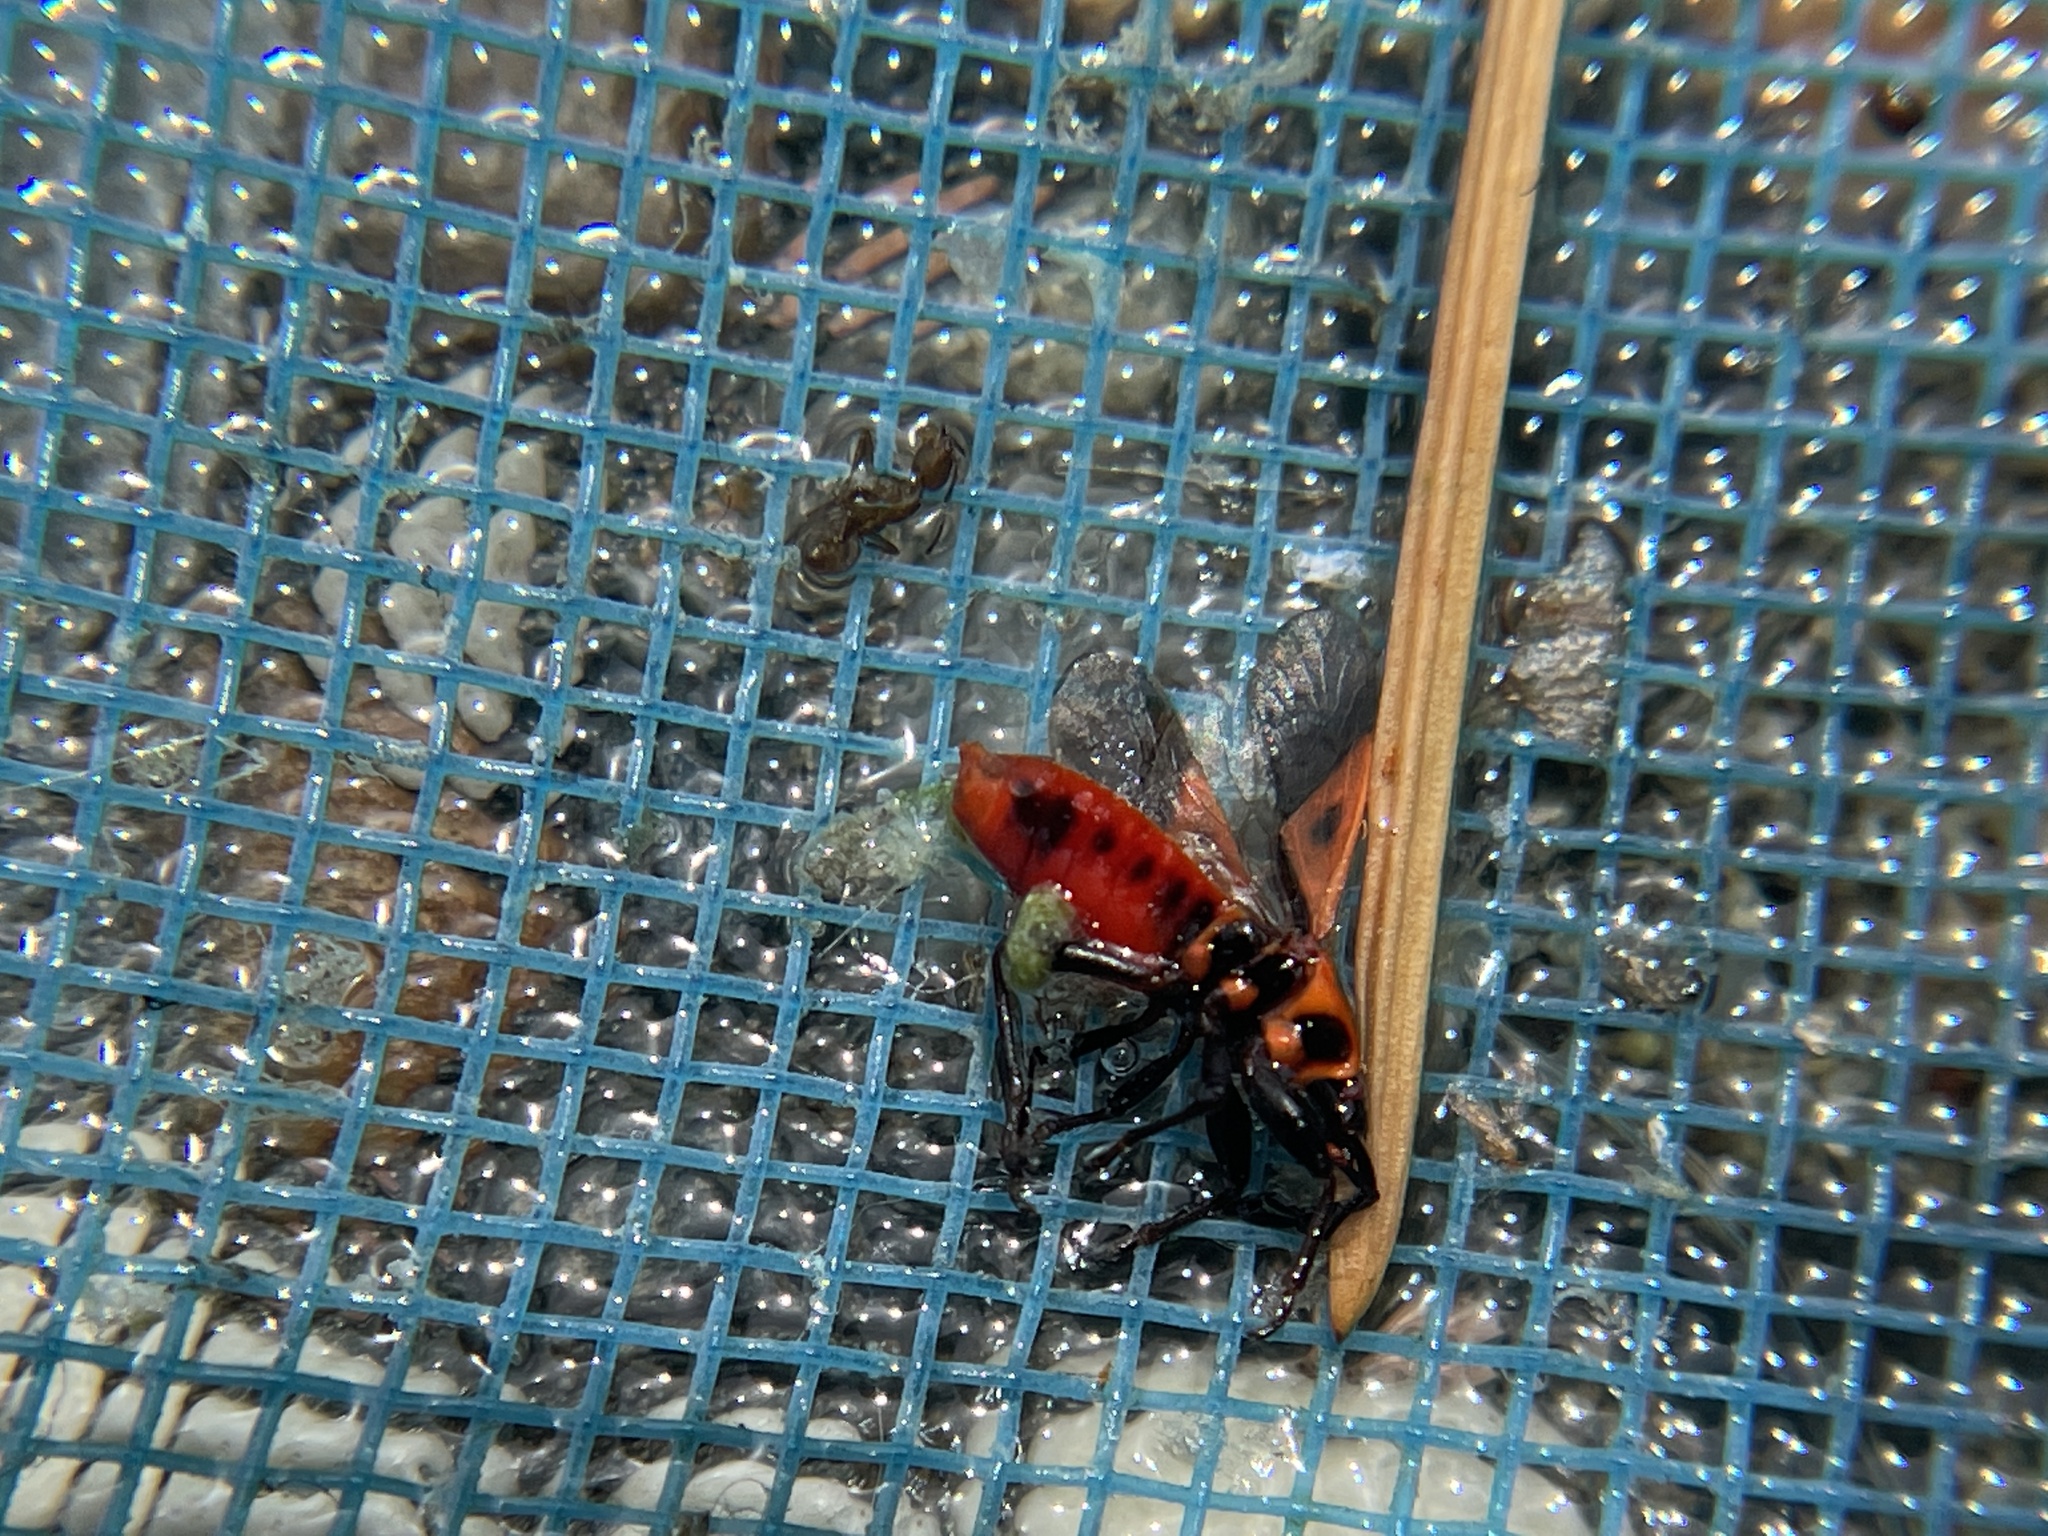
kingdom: Animalia
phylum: Arthropoda
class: Insecta
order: Hemiptera
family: Pyrrhocoridae
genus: Scantius
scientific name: Scantius aegyptius
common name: Red bug
